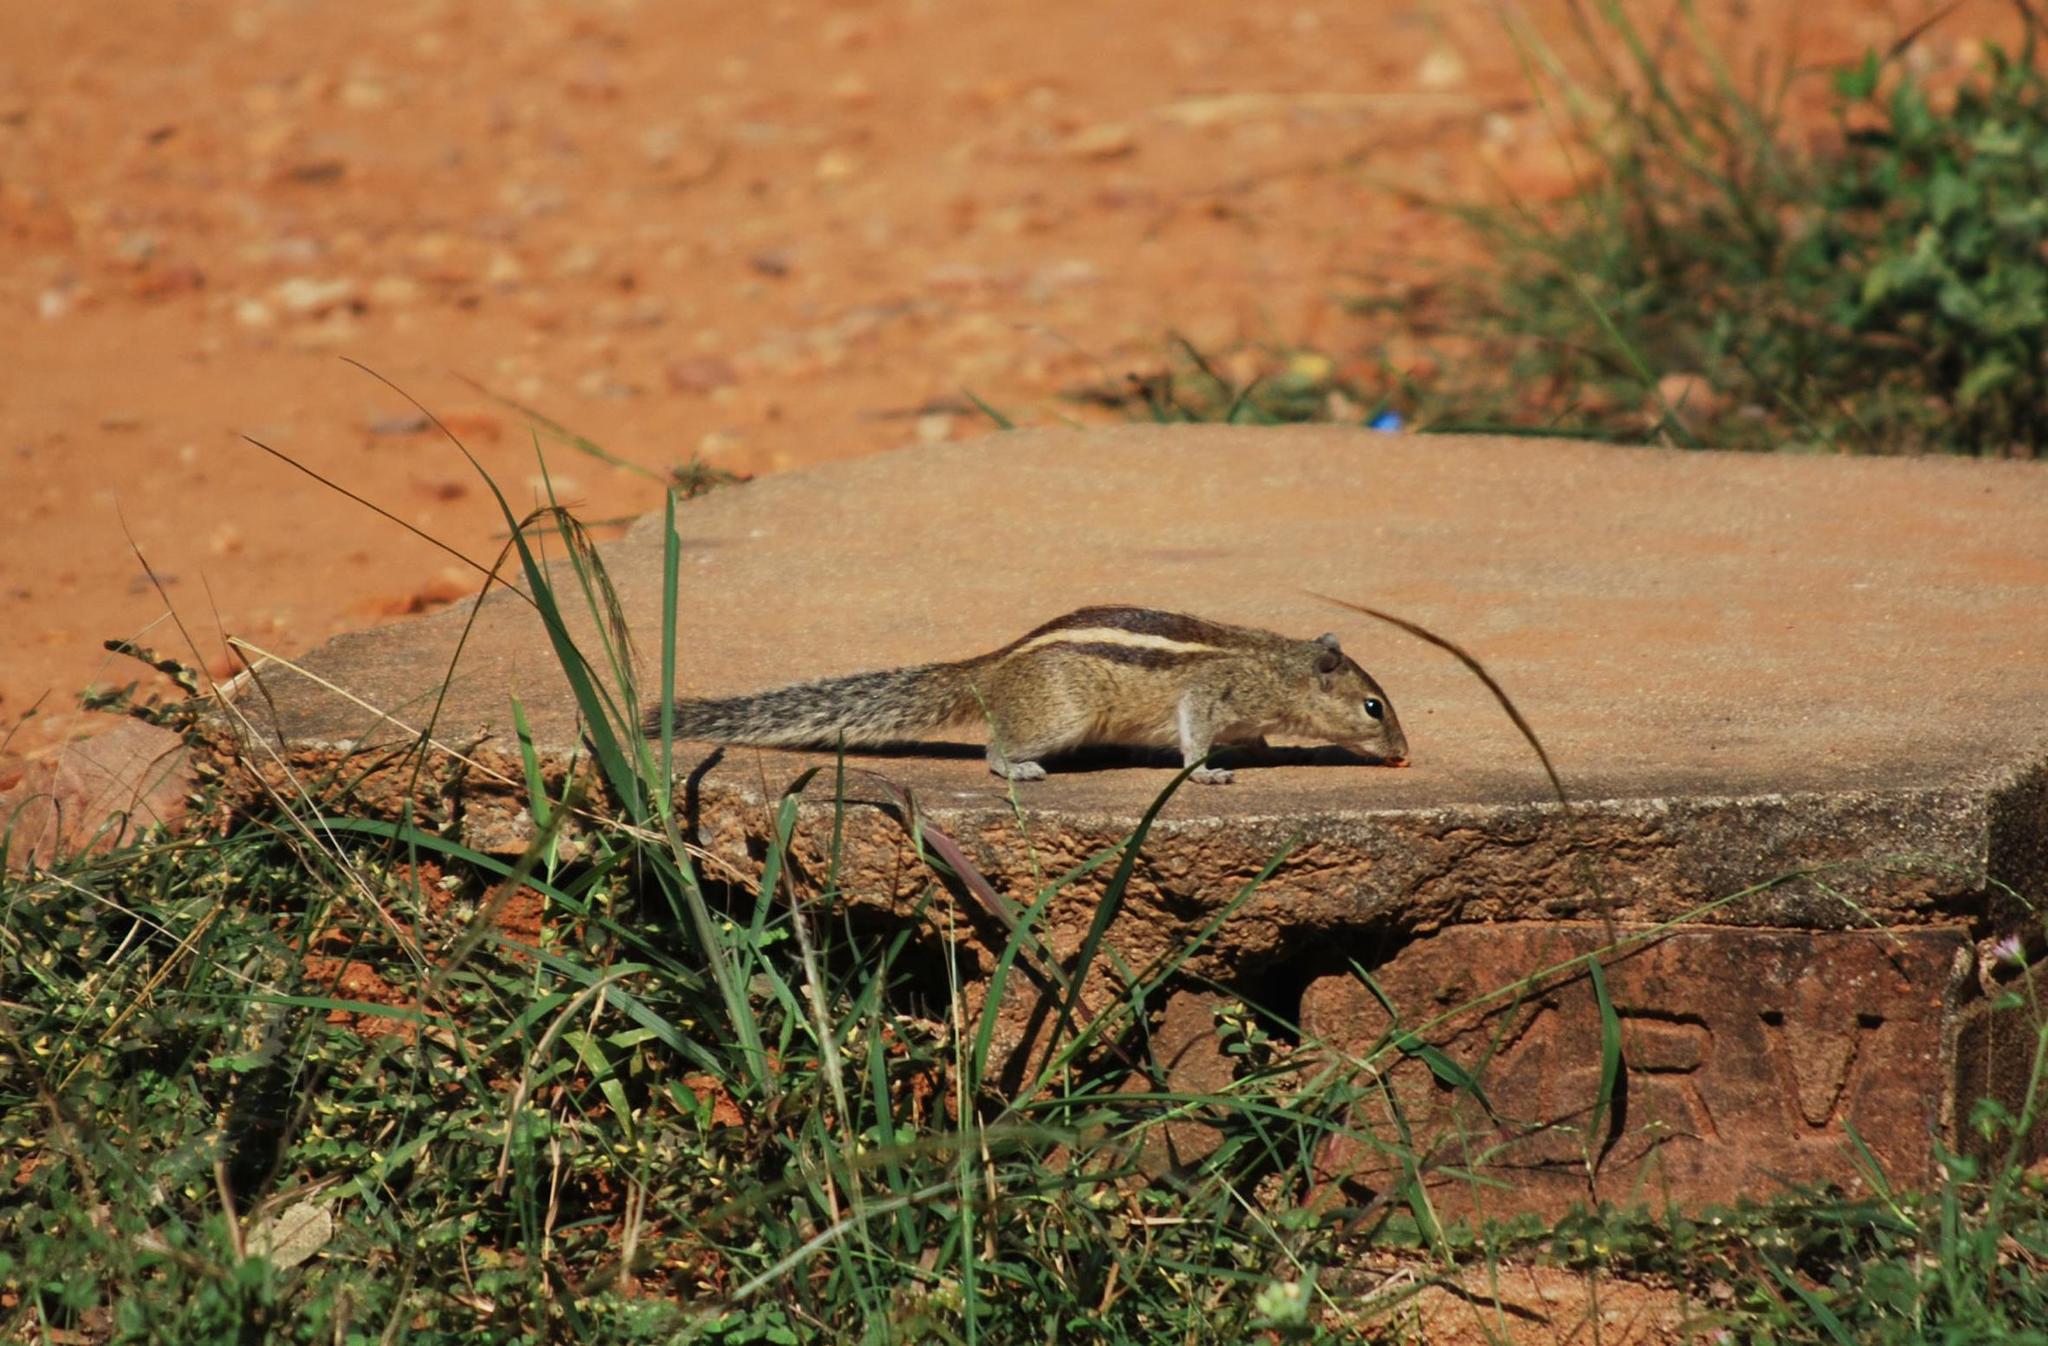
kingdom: Animalia
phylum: Chordata
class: Mammalia
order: Rodentia
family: Sciuridae
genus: Funambulus
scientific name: Funambulus palmarum
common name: Indian palm squirrel
